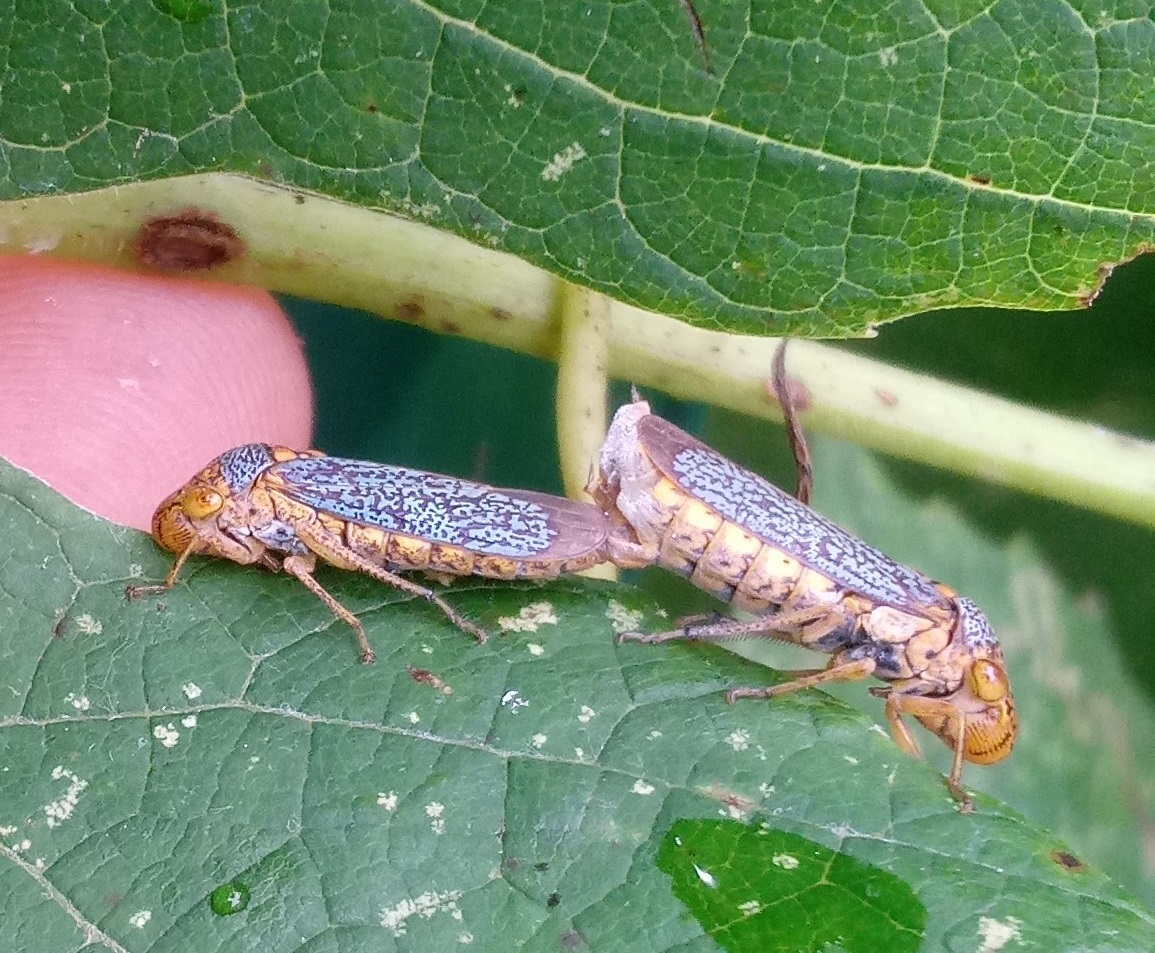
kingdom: Animalia
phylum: Arthropoda
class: Insecta
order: Hemiptera
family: Cicadellidae
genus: Oncometopia
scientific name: Oncometopia orbona
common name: Broad-headed sharpshooter
